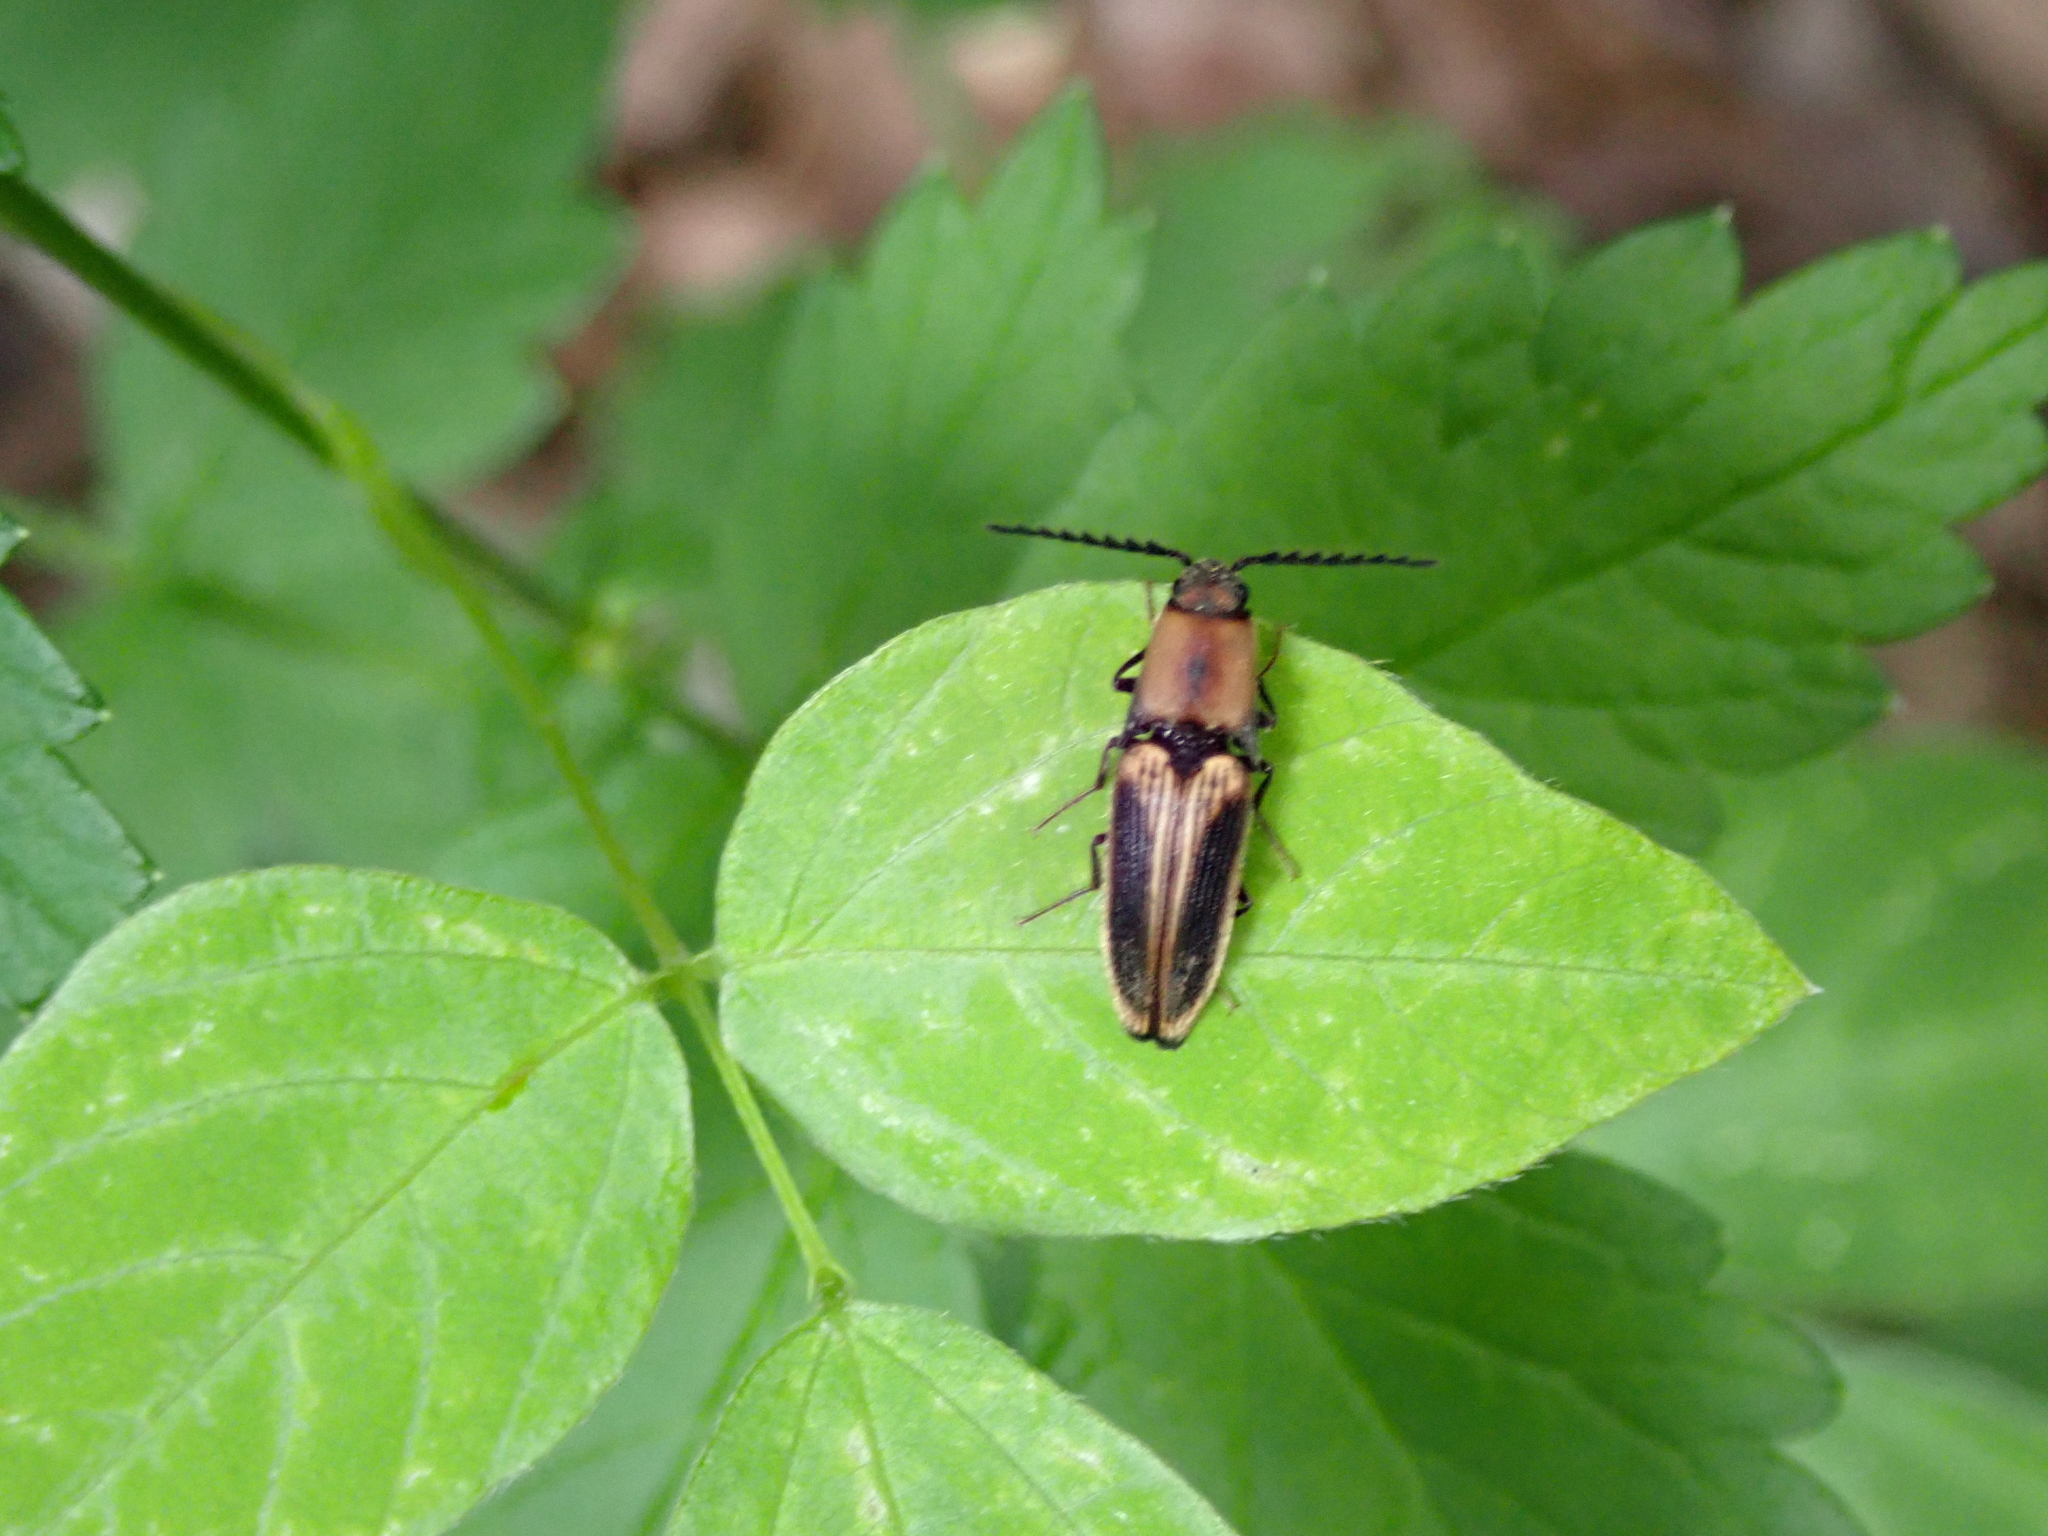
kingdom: Animalia
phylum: Arthropoda
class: Insecta
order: Coleoptera
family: Elateridae
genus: Megapenthes
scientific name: Megapenthes
